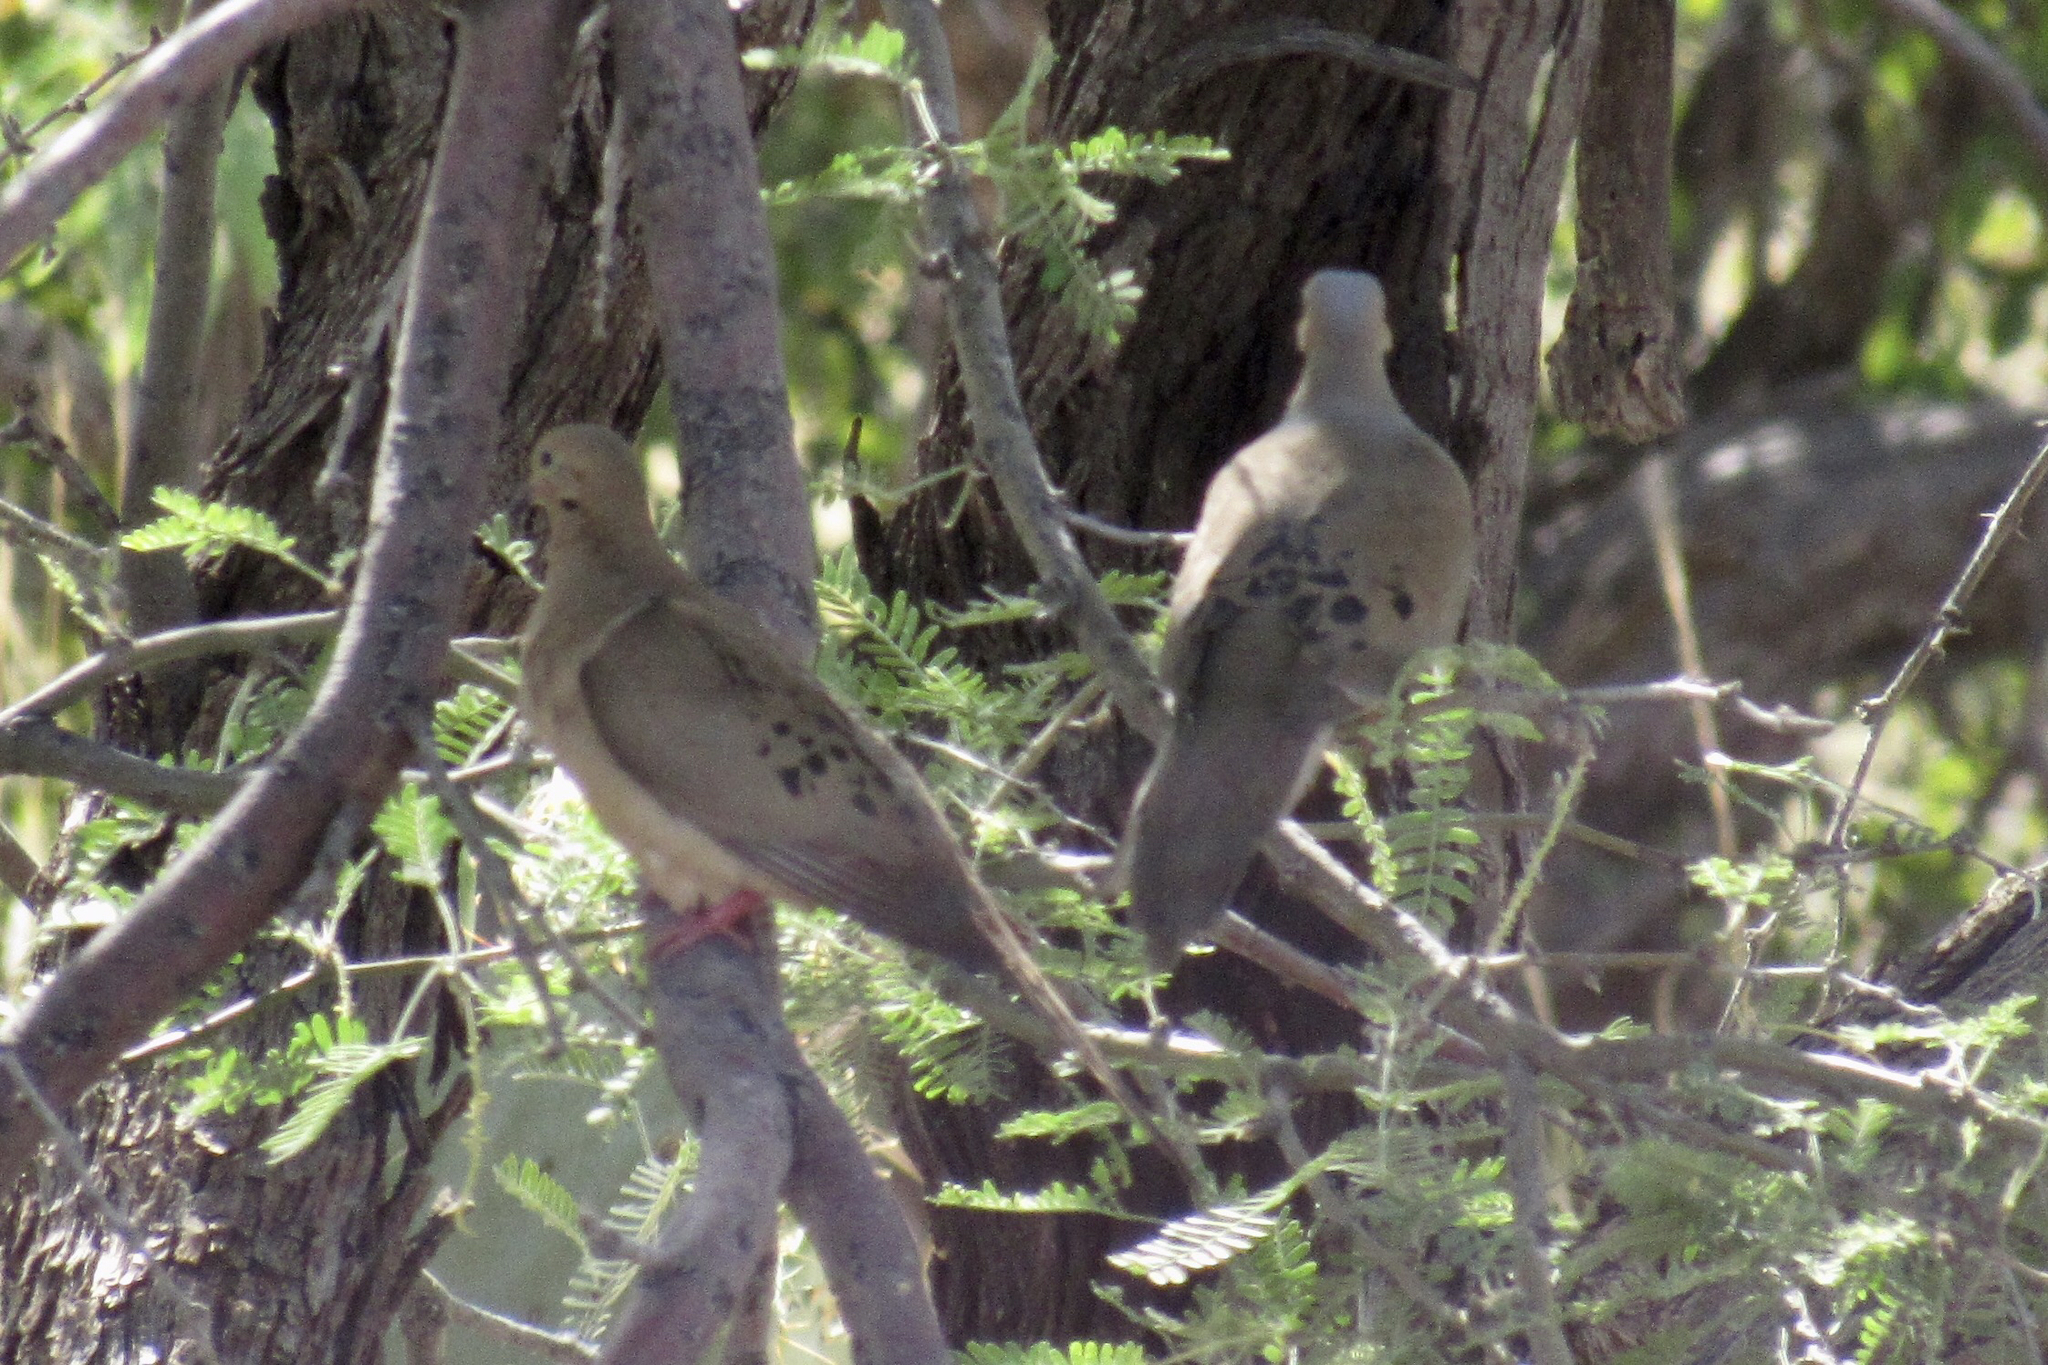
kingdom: Animalia
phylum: Chordata
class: Aves
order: Columbiformes
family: Columbidae
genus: Zenaida
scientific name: Zenaida macroura
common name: Mourning dove
